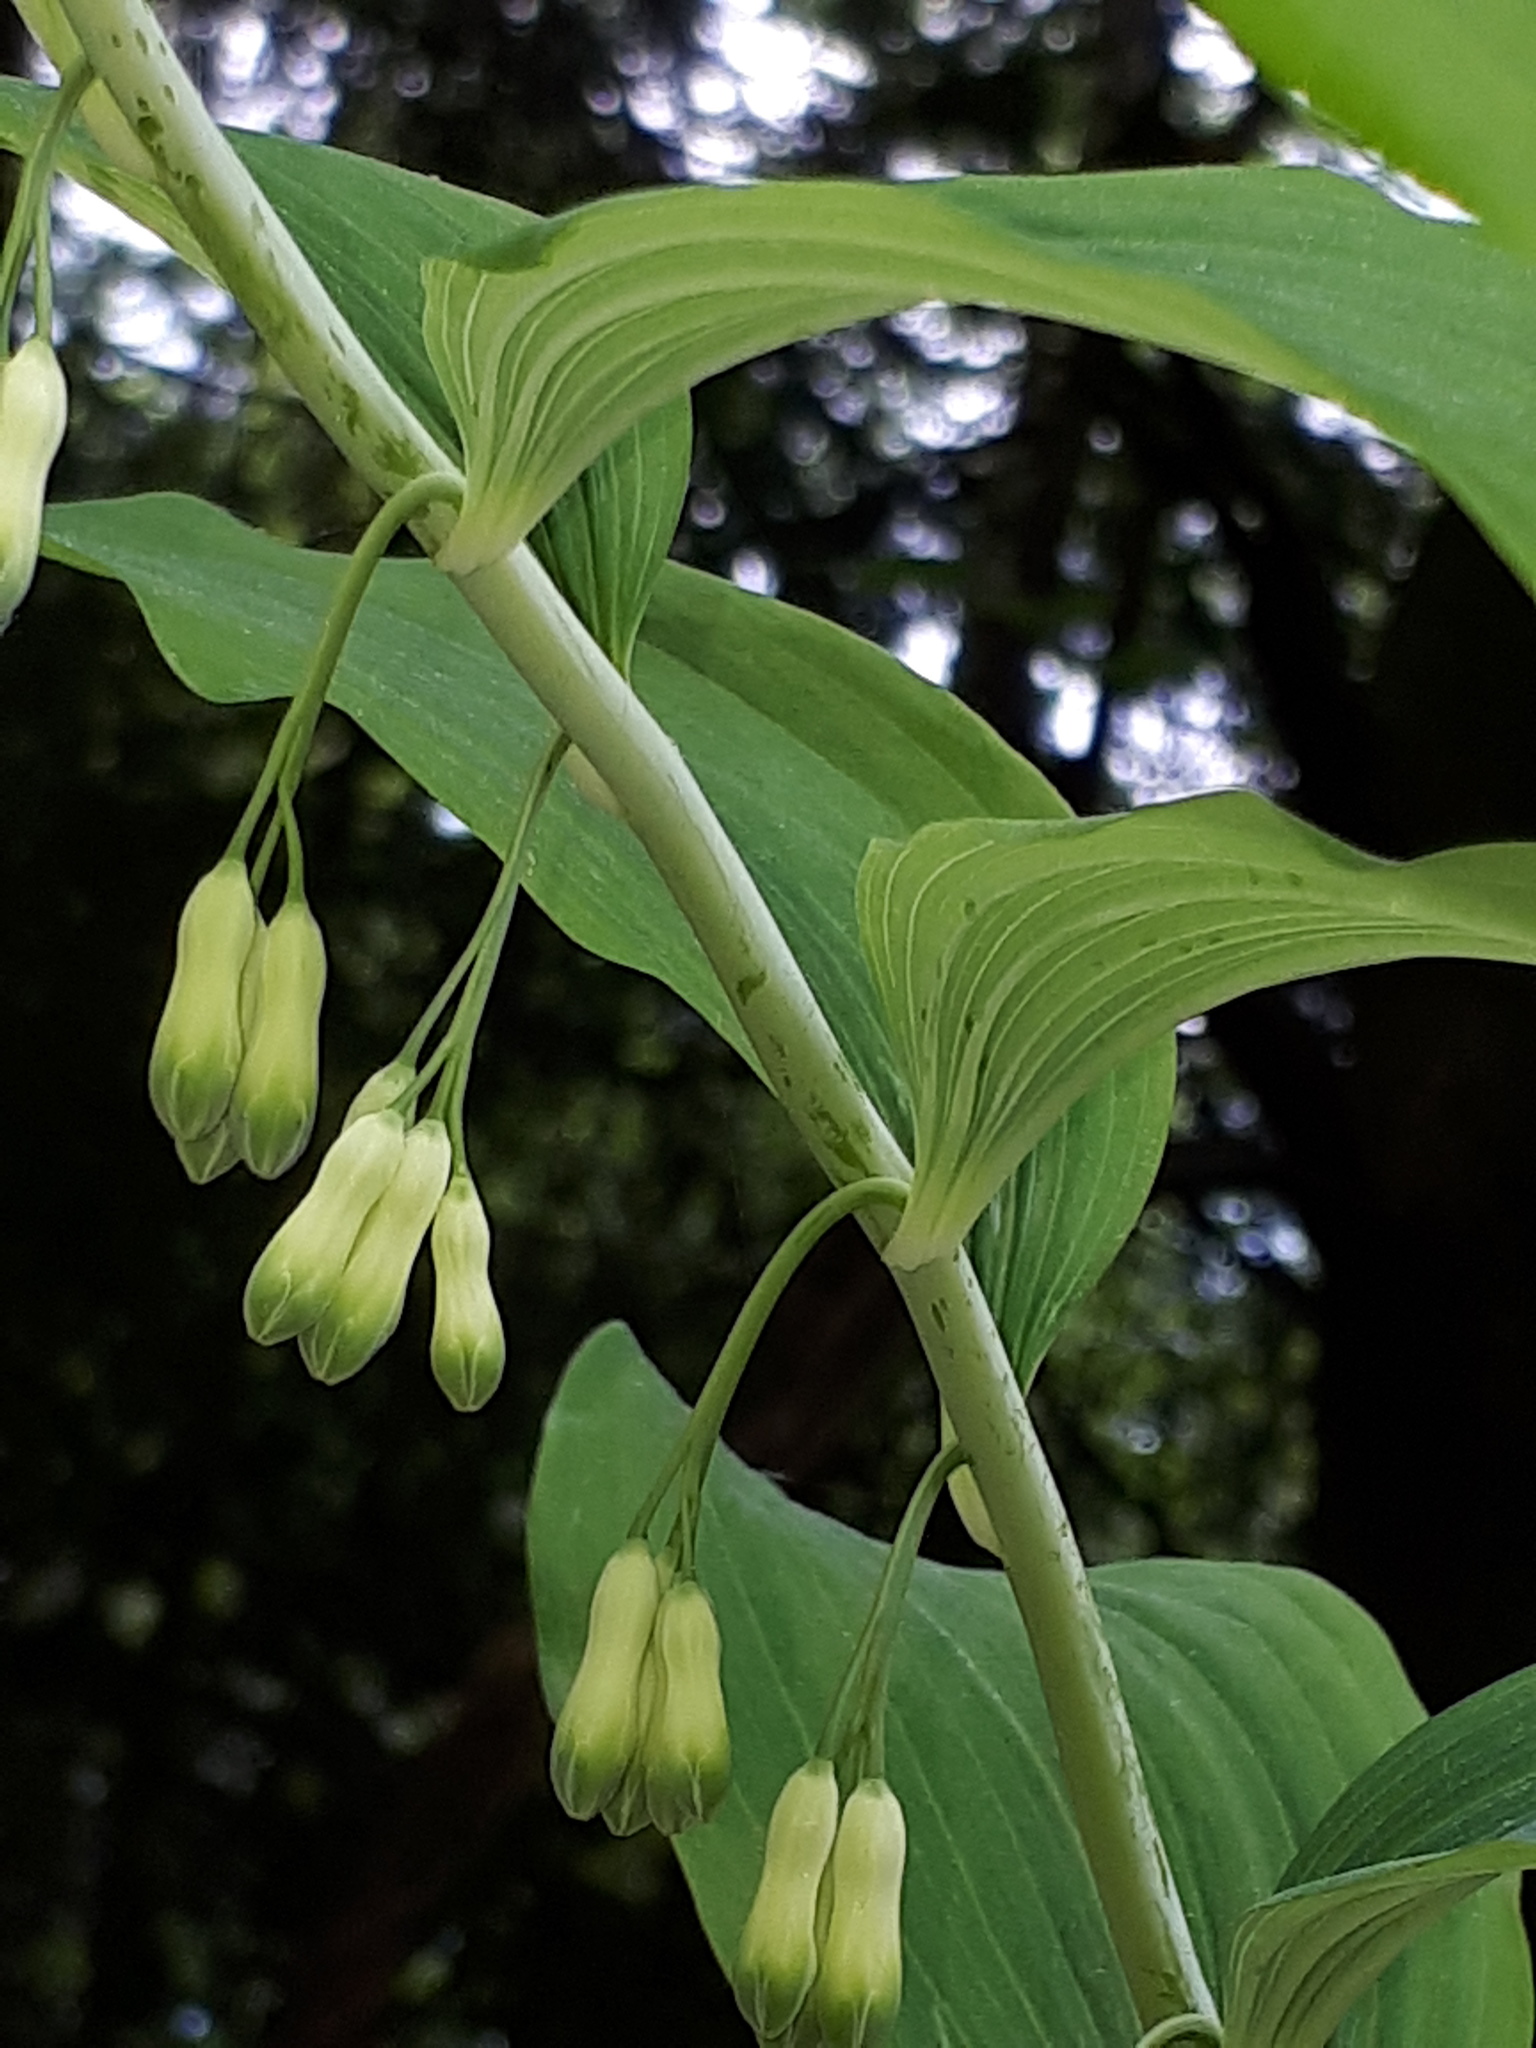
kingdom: Plantae
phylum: Tracheophyta
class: Liliopsida
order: Asparagales
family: Asparagaceae
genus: Polygonatum
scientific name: Polygonatum multiflorum
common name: Solomon's-seal
